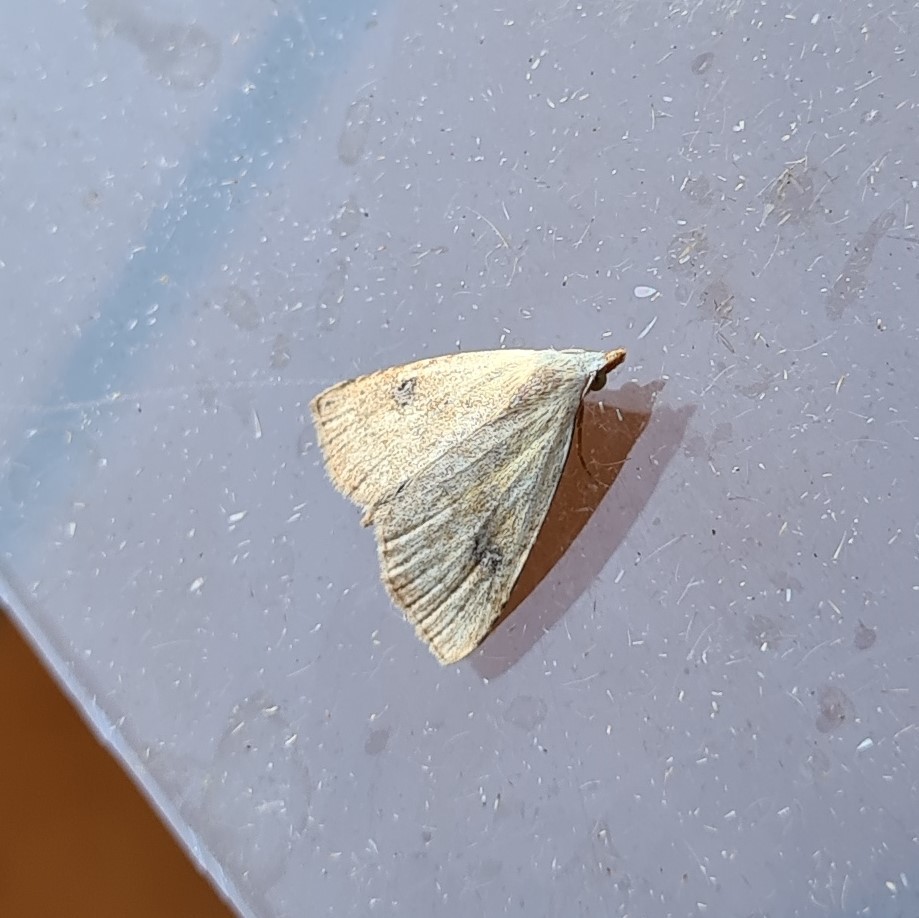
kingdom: Animalia
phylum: Arthropoda
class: Insecta
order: Lepidoptera
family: Erebidae
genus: Rivula
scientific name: Rivula sericealis
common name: Straw dot
